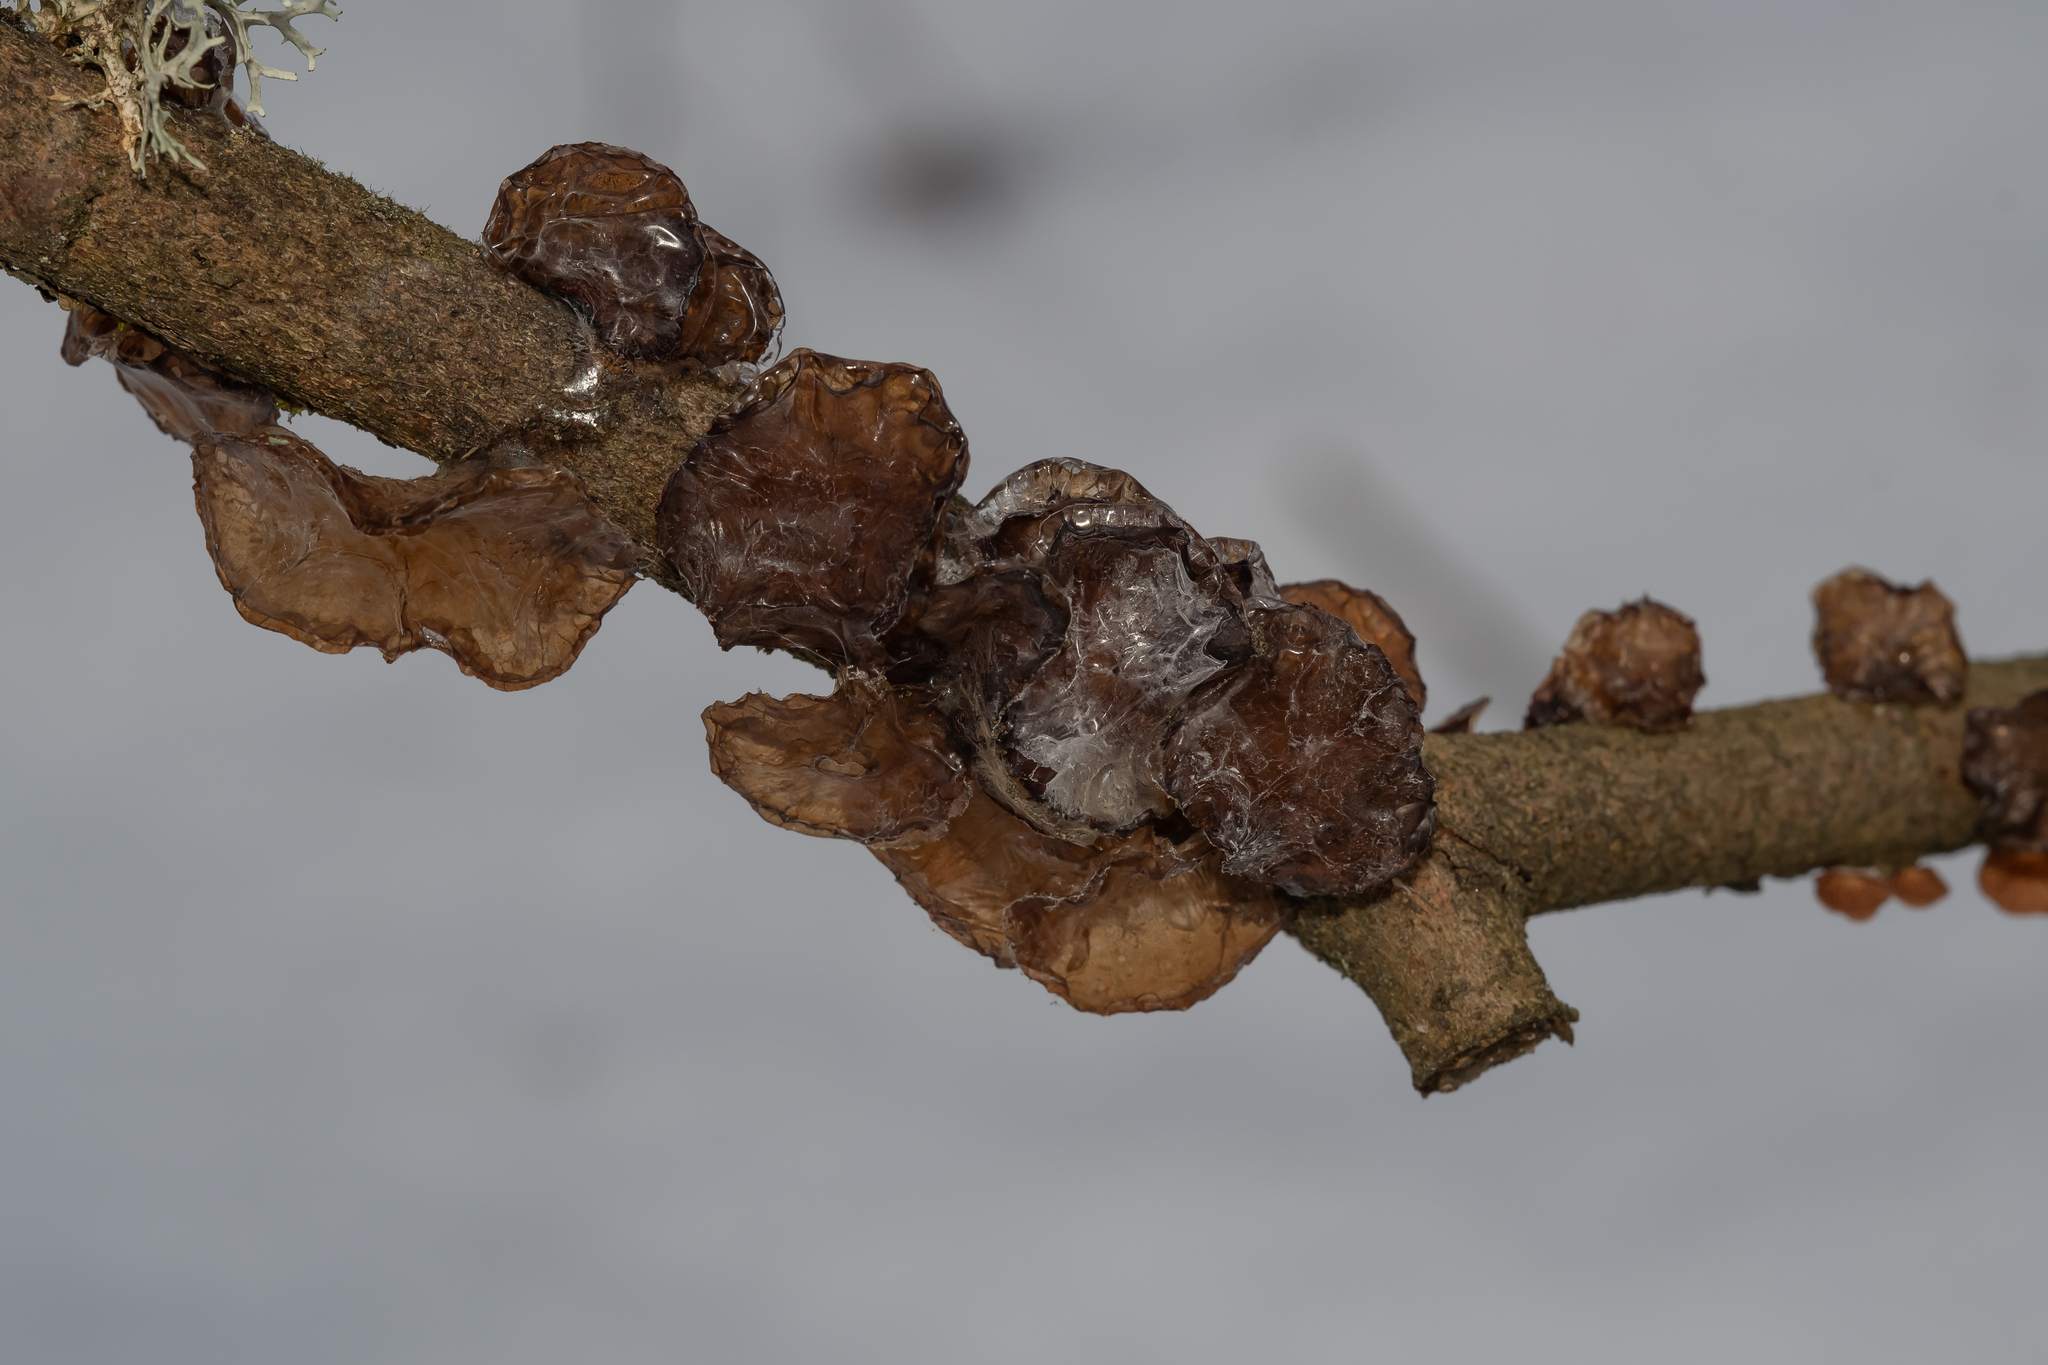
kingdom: Fungi
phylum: Basidiomycota
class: Agaricomycetes
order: Auriculariales
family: Auriculariaceae
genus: Exidia
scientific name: Exidia recisa
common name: Amber jelly
